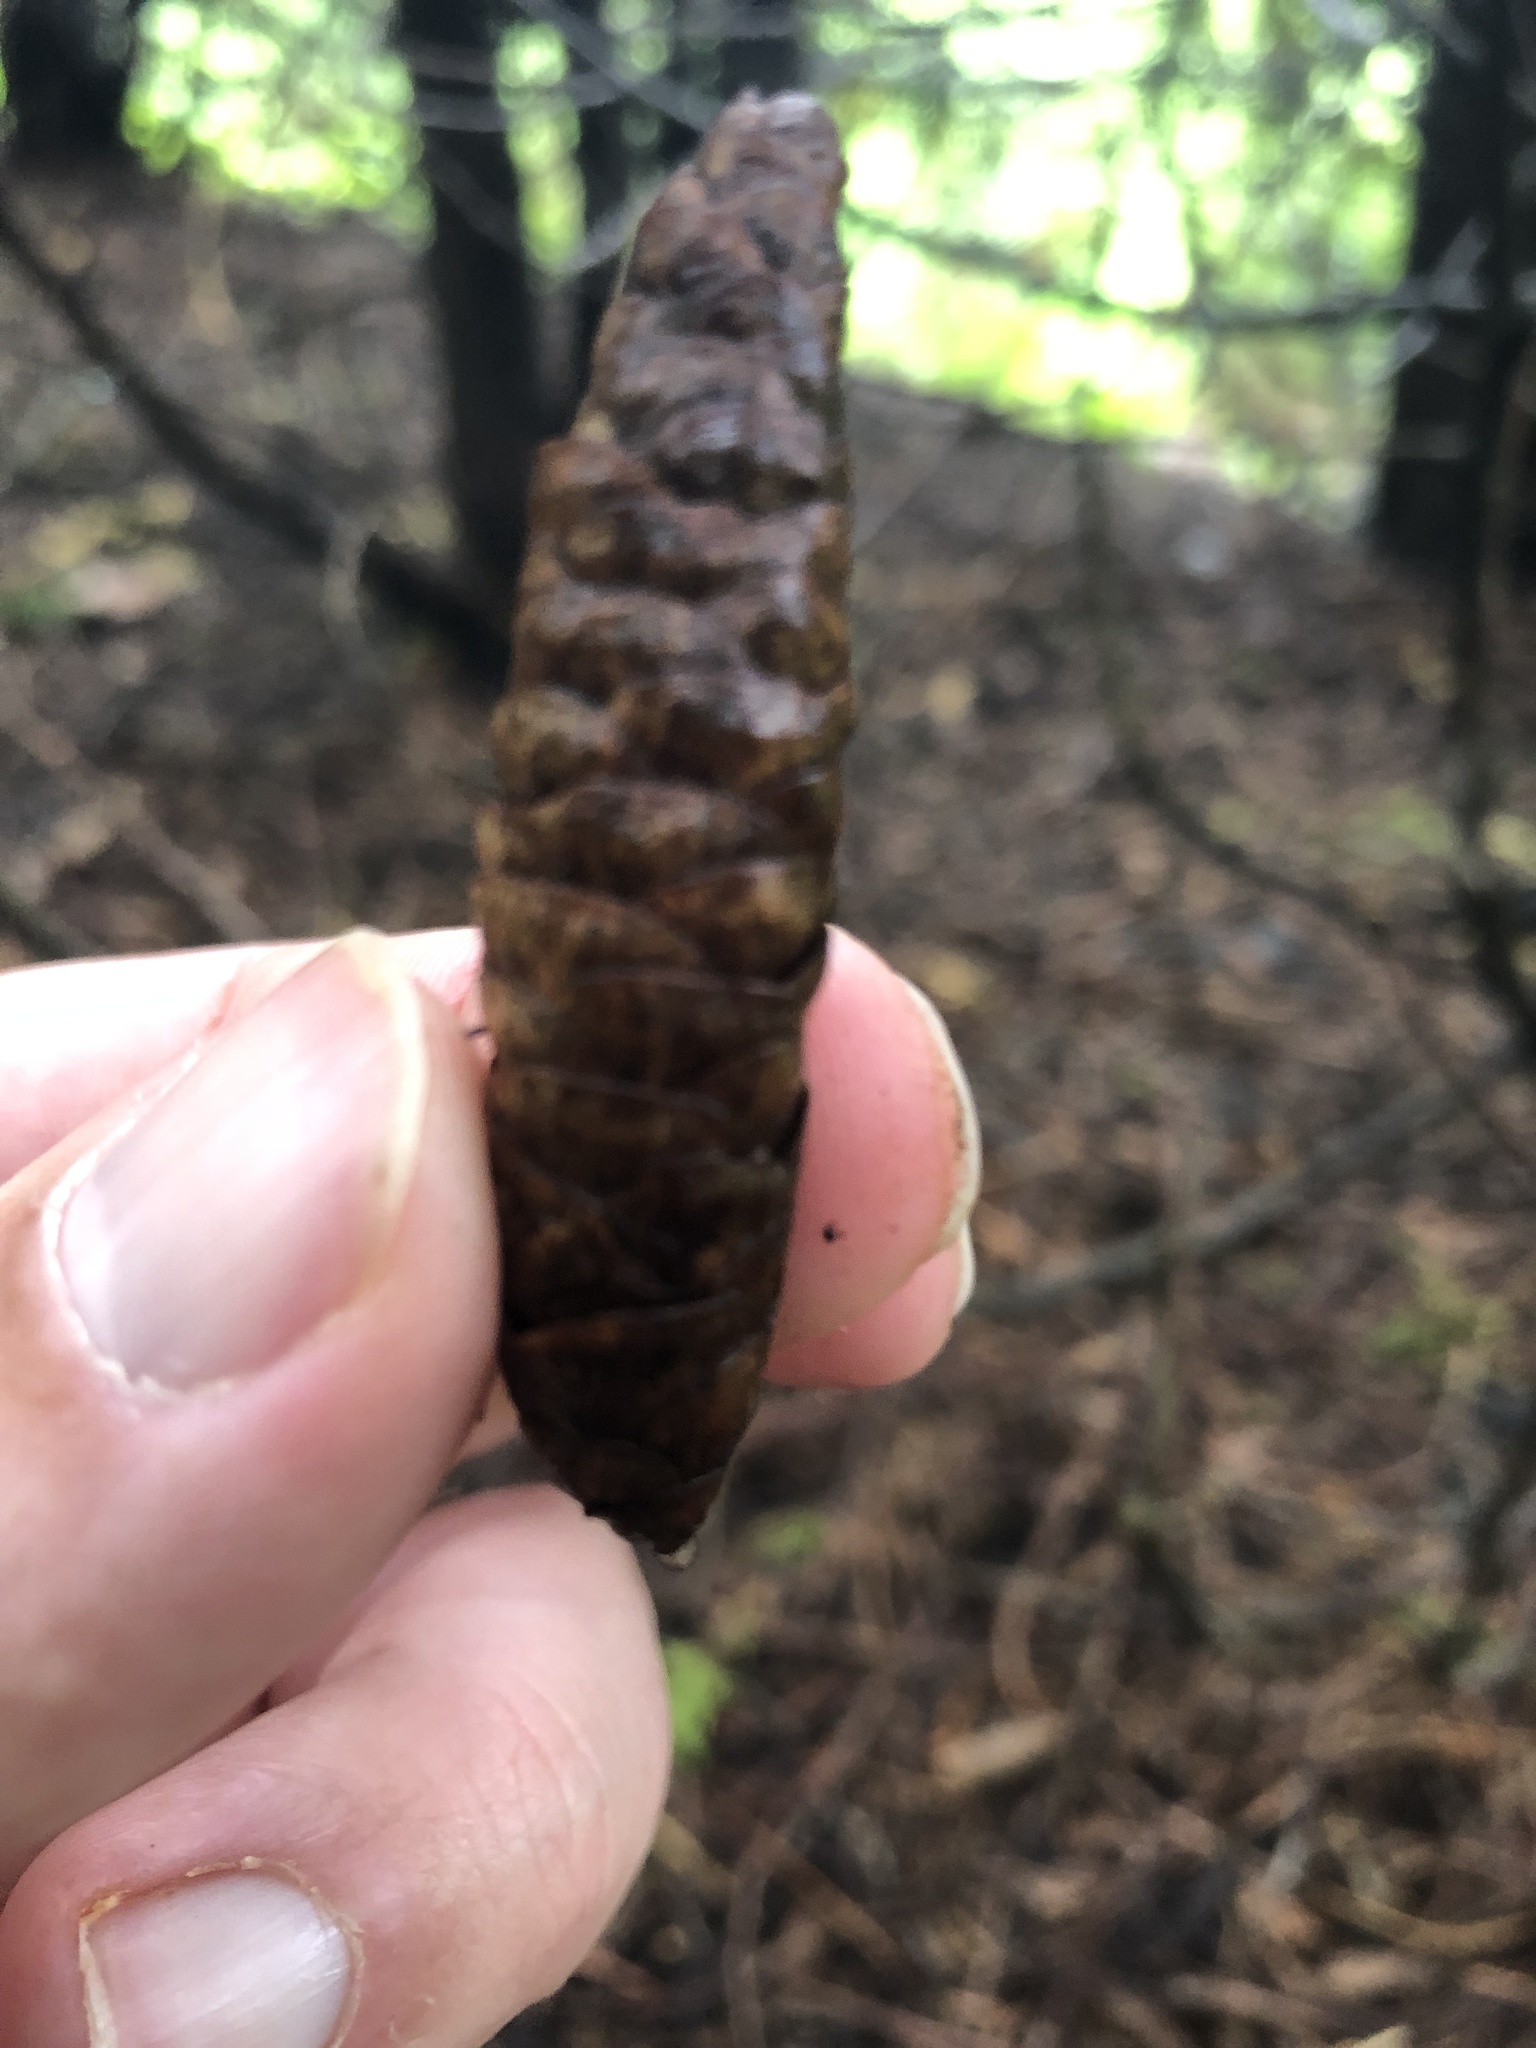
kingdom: Plantae
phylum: Tracheophyta
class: Pinopsida
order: Pinales
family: Pinaceae
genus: Picea
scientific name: Picea glauca
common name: White spruce
